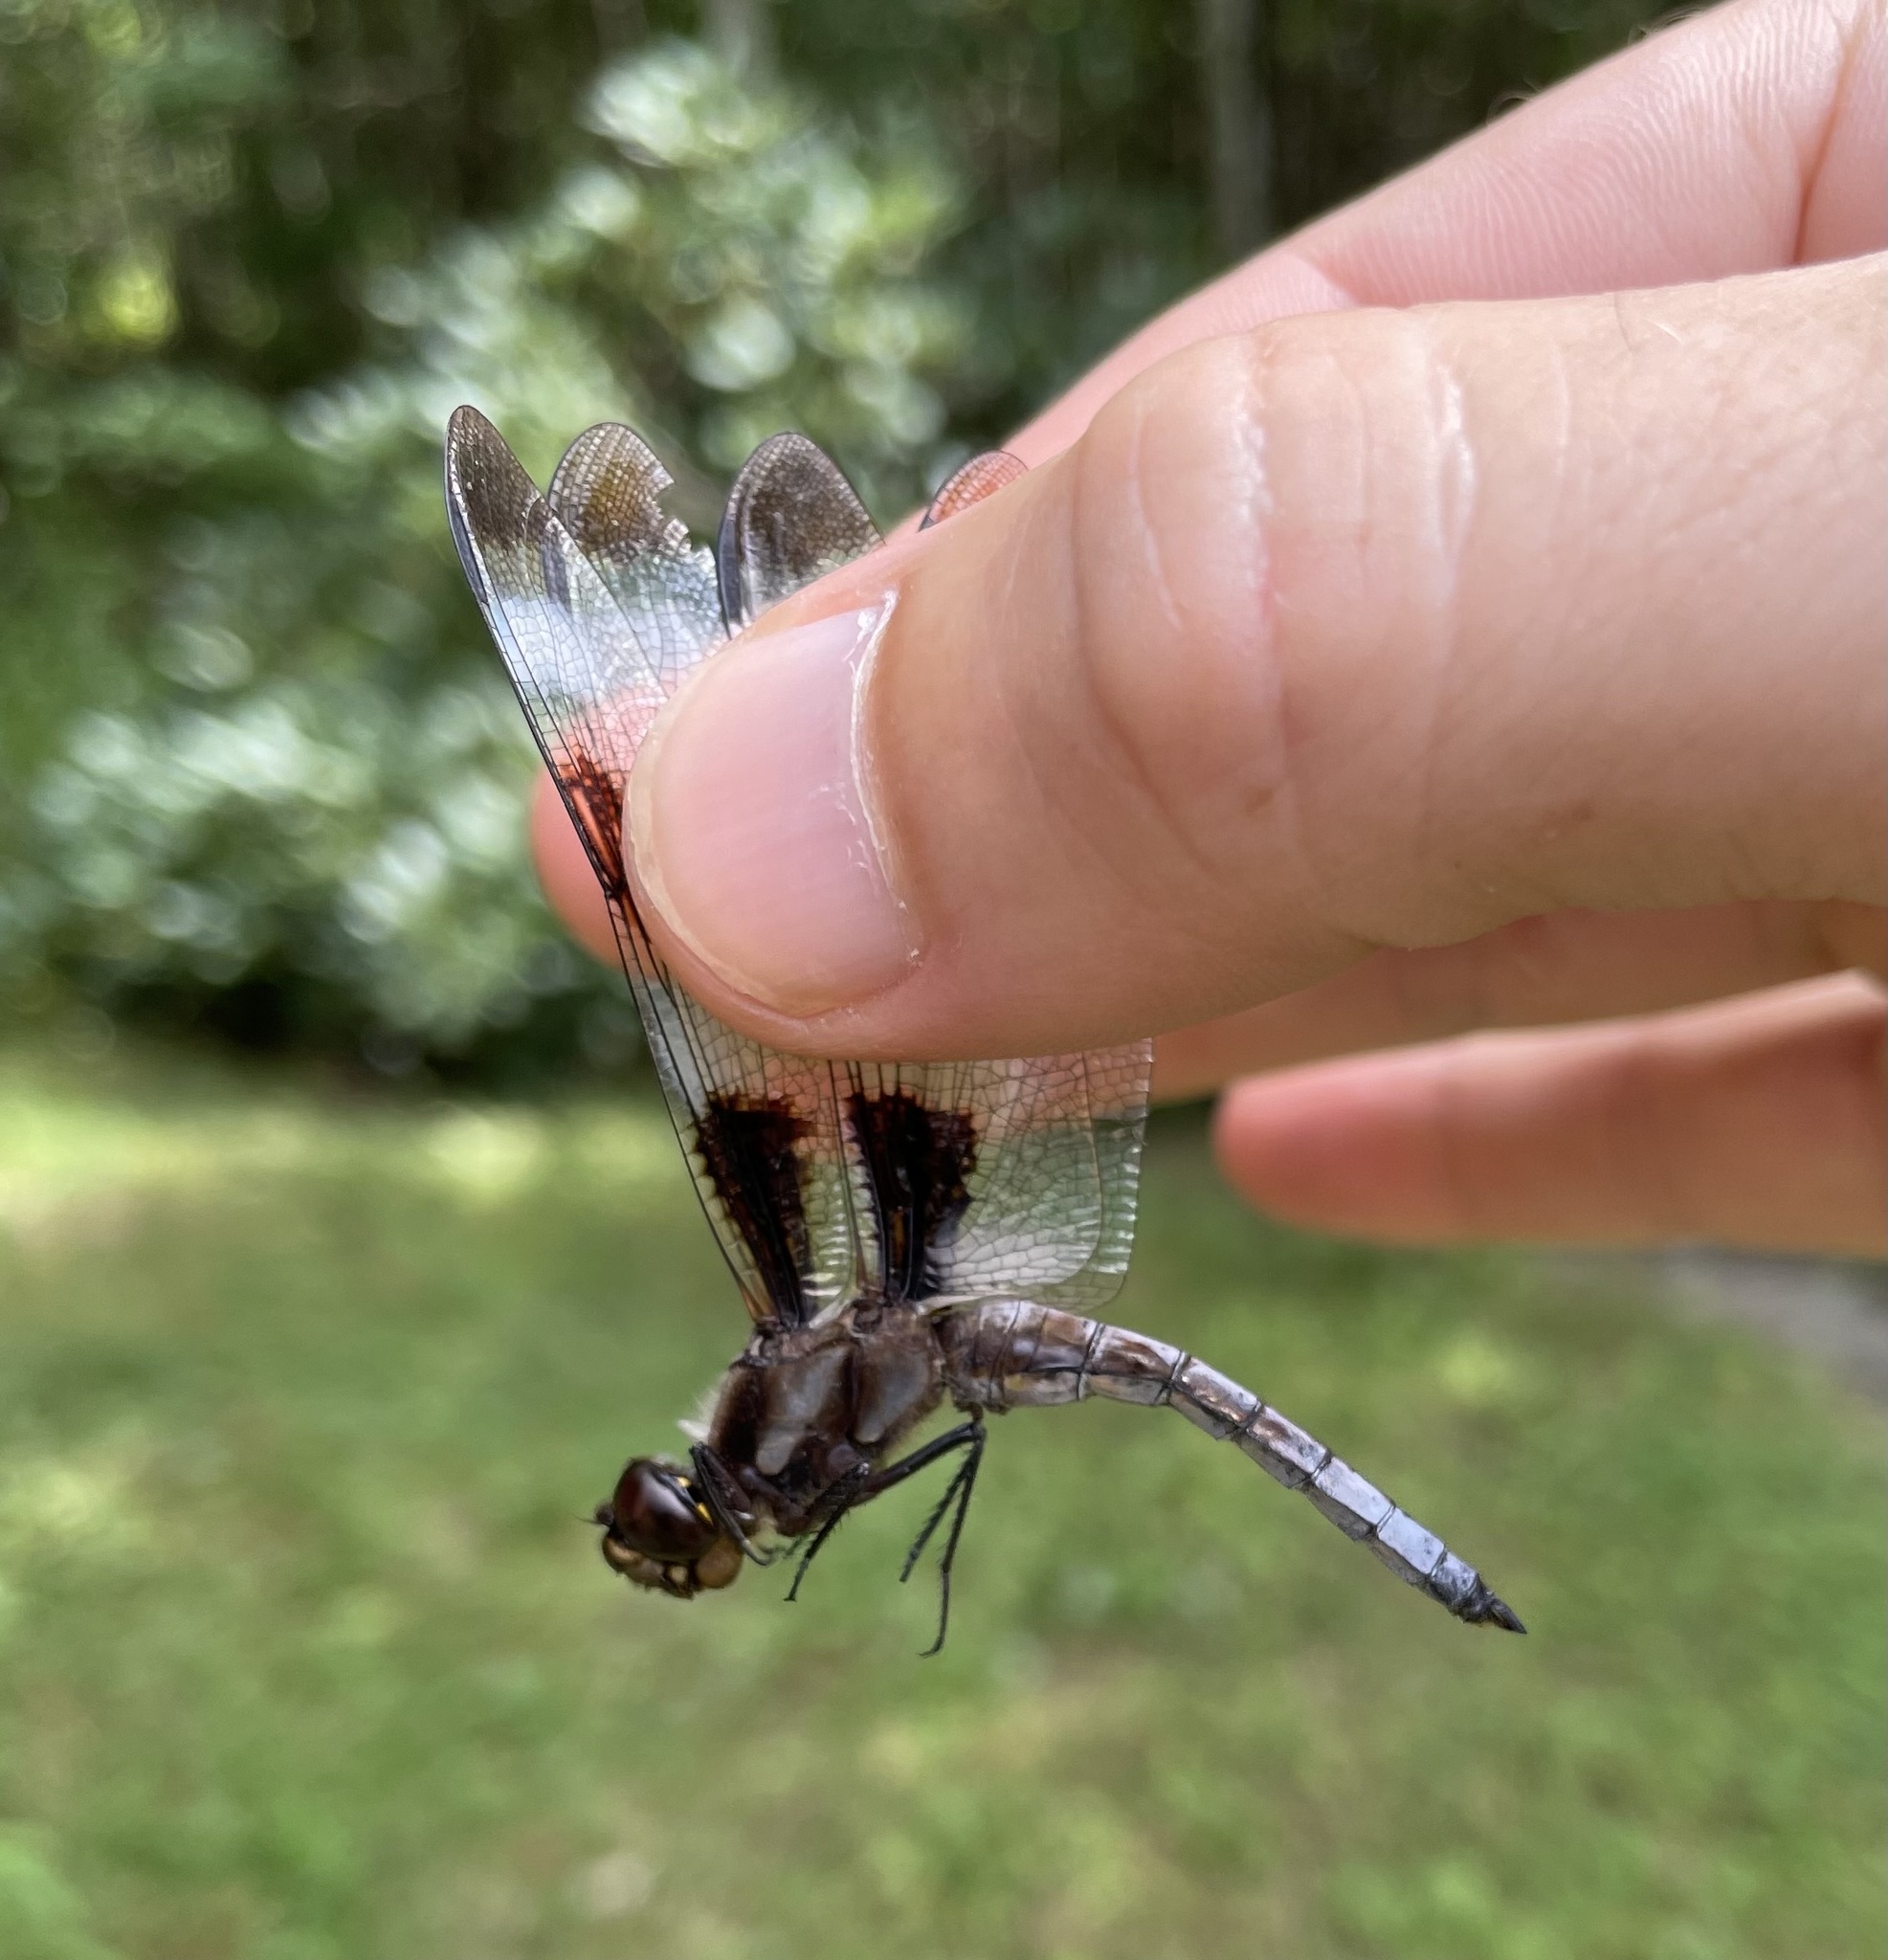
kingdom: Animalia
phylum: Arthropoda
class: Insecta
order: Odonata
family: Libellulidae
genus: Libellula
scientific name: Libellula pulchella
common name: Twelve-spotted skimmer
